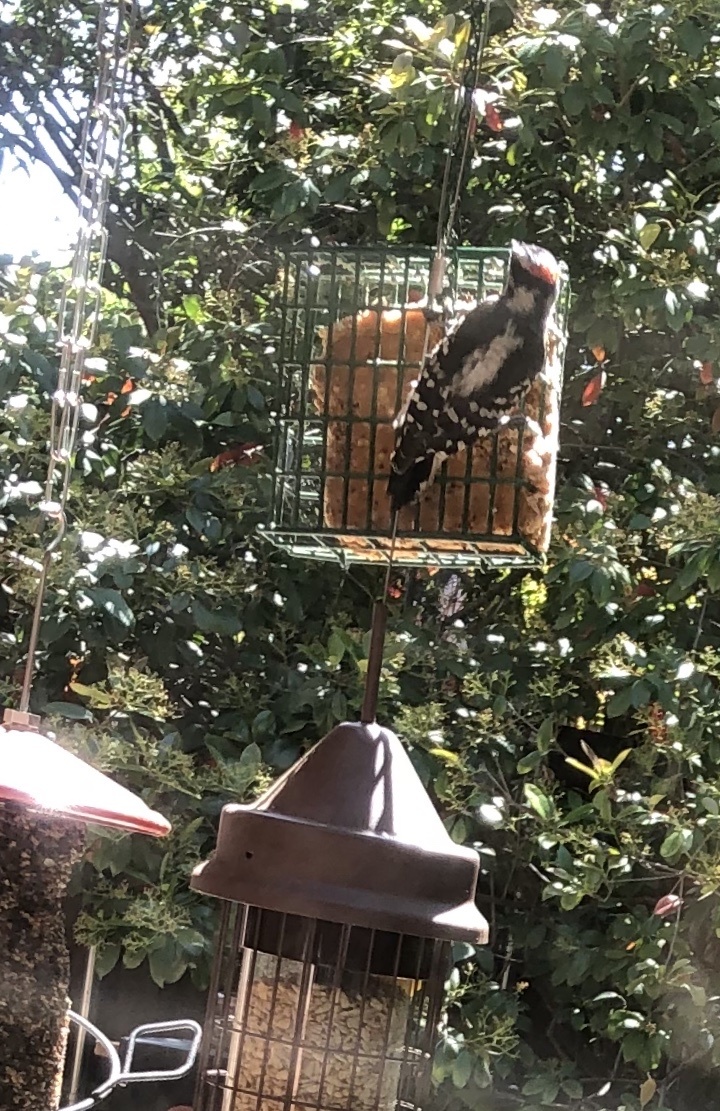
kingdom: Animalia
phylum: Chordata
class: Aves
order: Piciformes
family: Picidae
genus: Dryobates
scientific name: Dryobates pubescens
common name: Downy woodpecker
